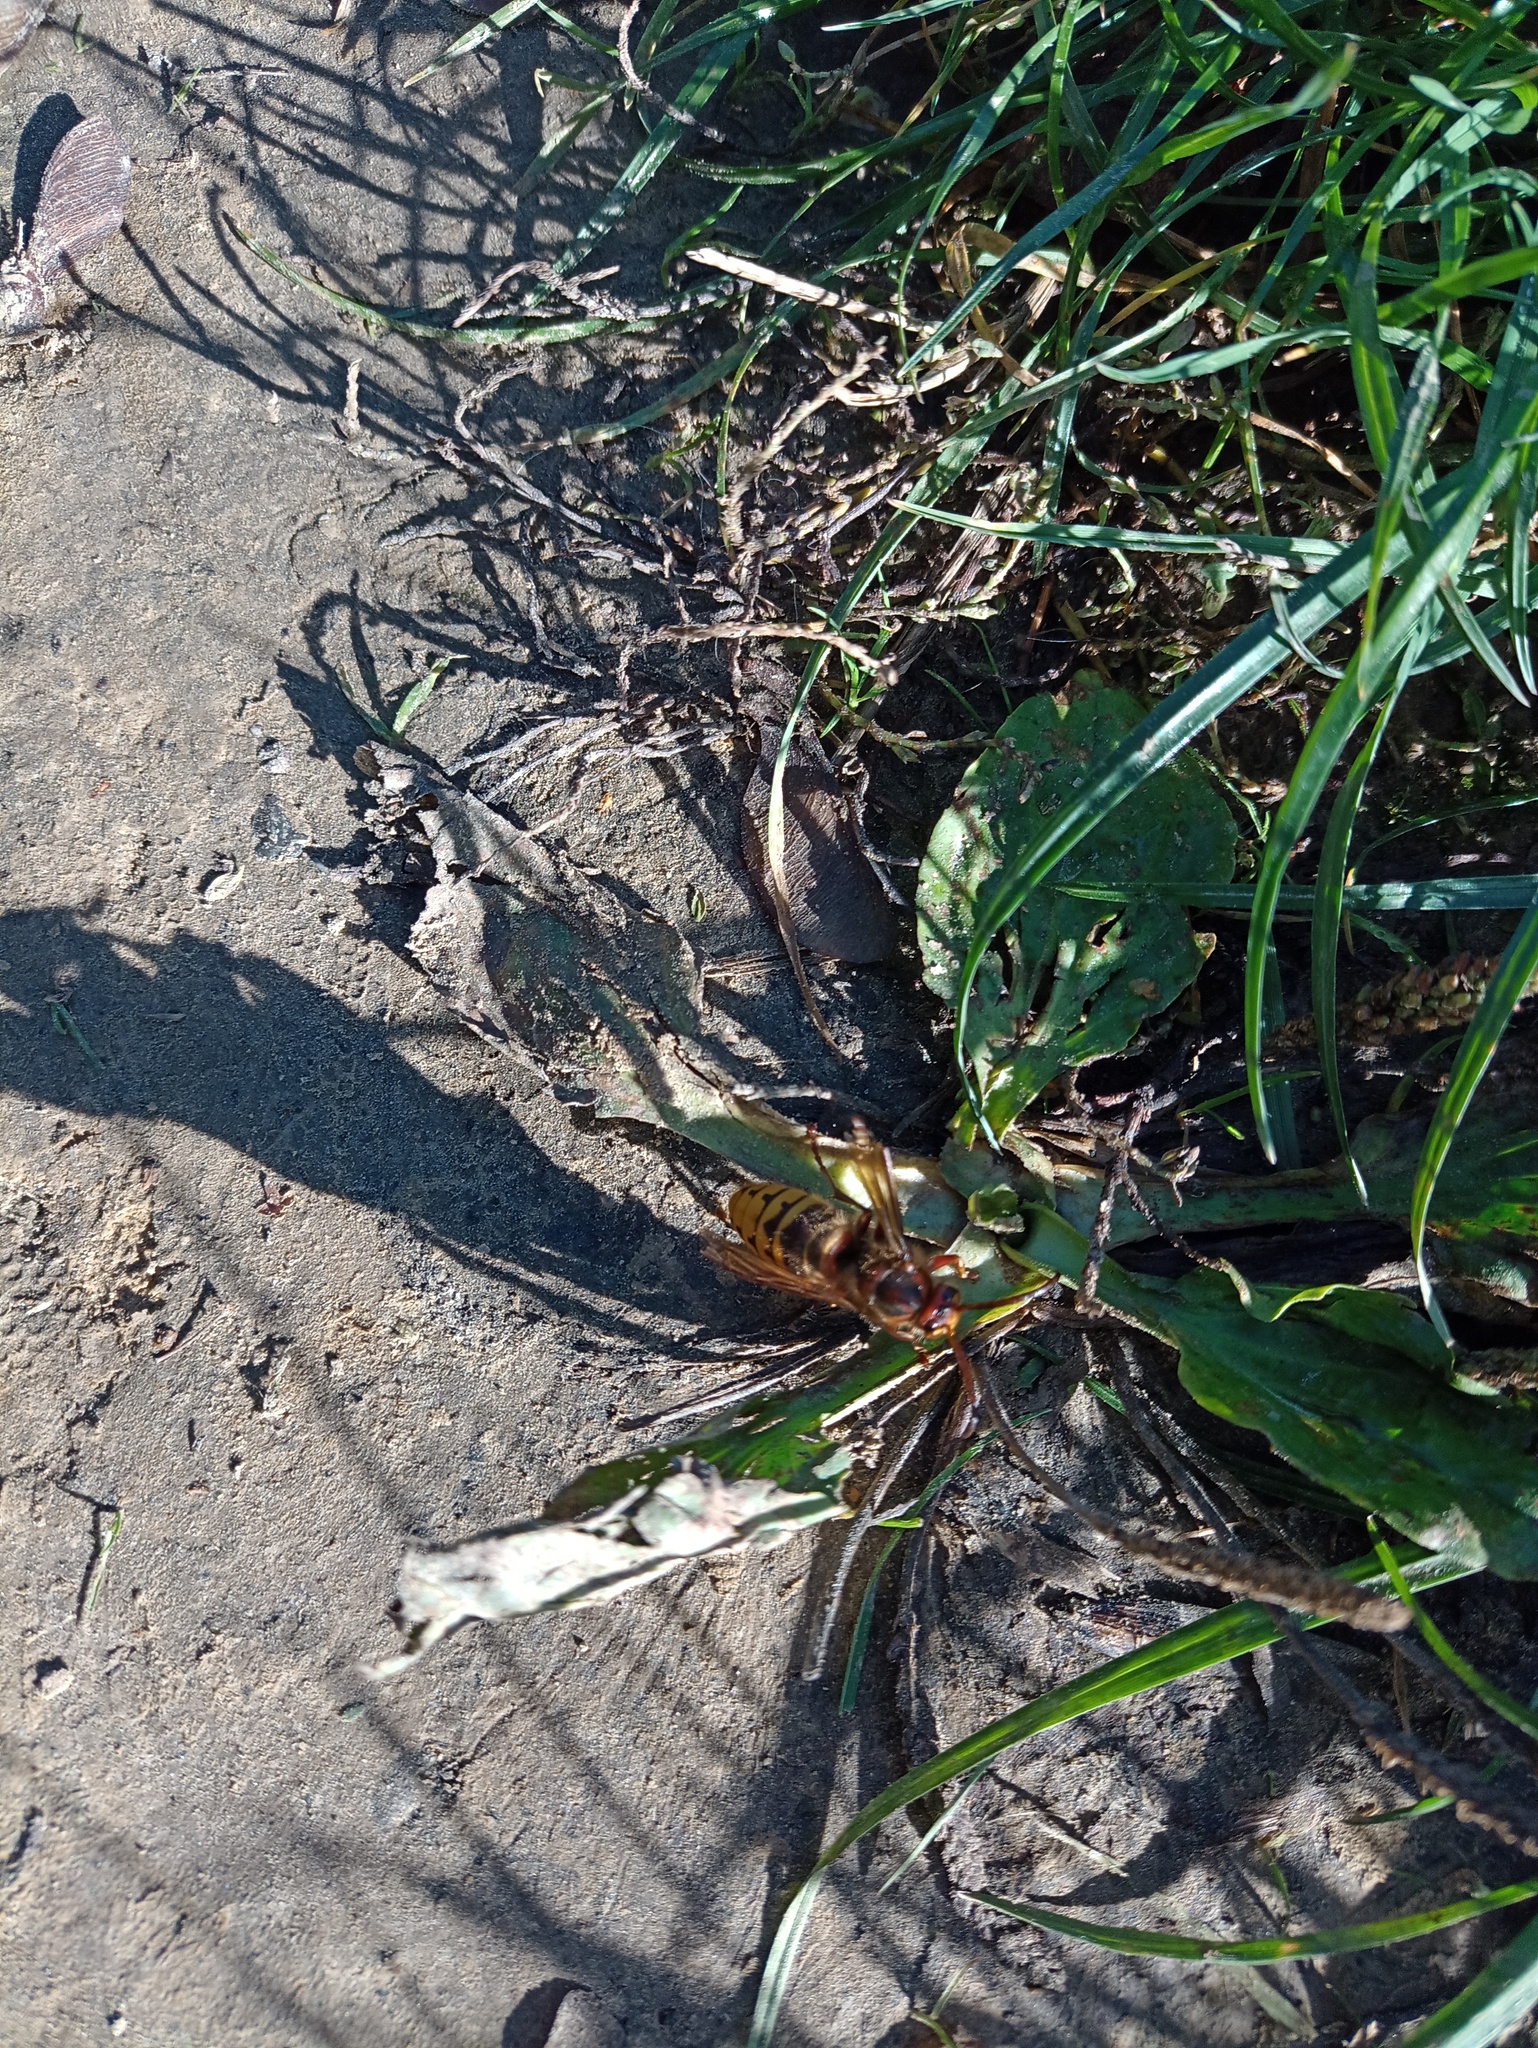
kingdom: Animalia
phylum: Arthropoda
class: Insecta
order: Hymenoptera
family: Vespidae
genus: Vespa
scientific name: Vespa crabro
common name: Hornet
